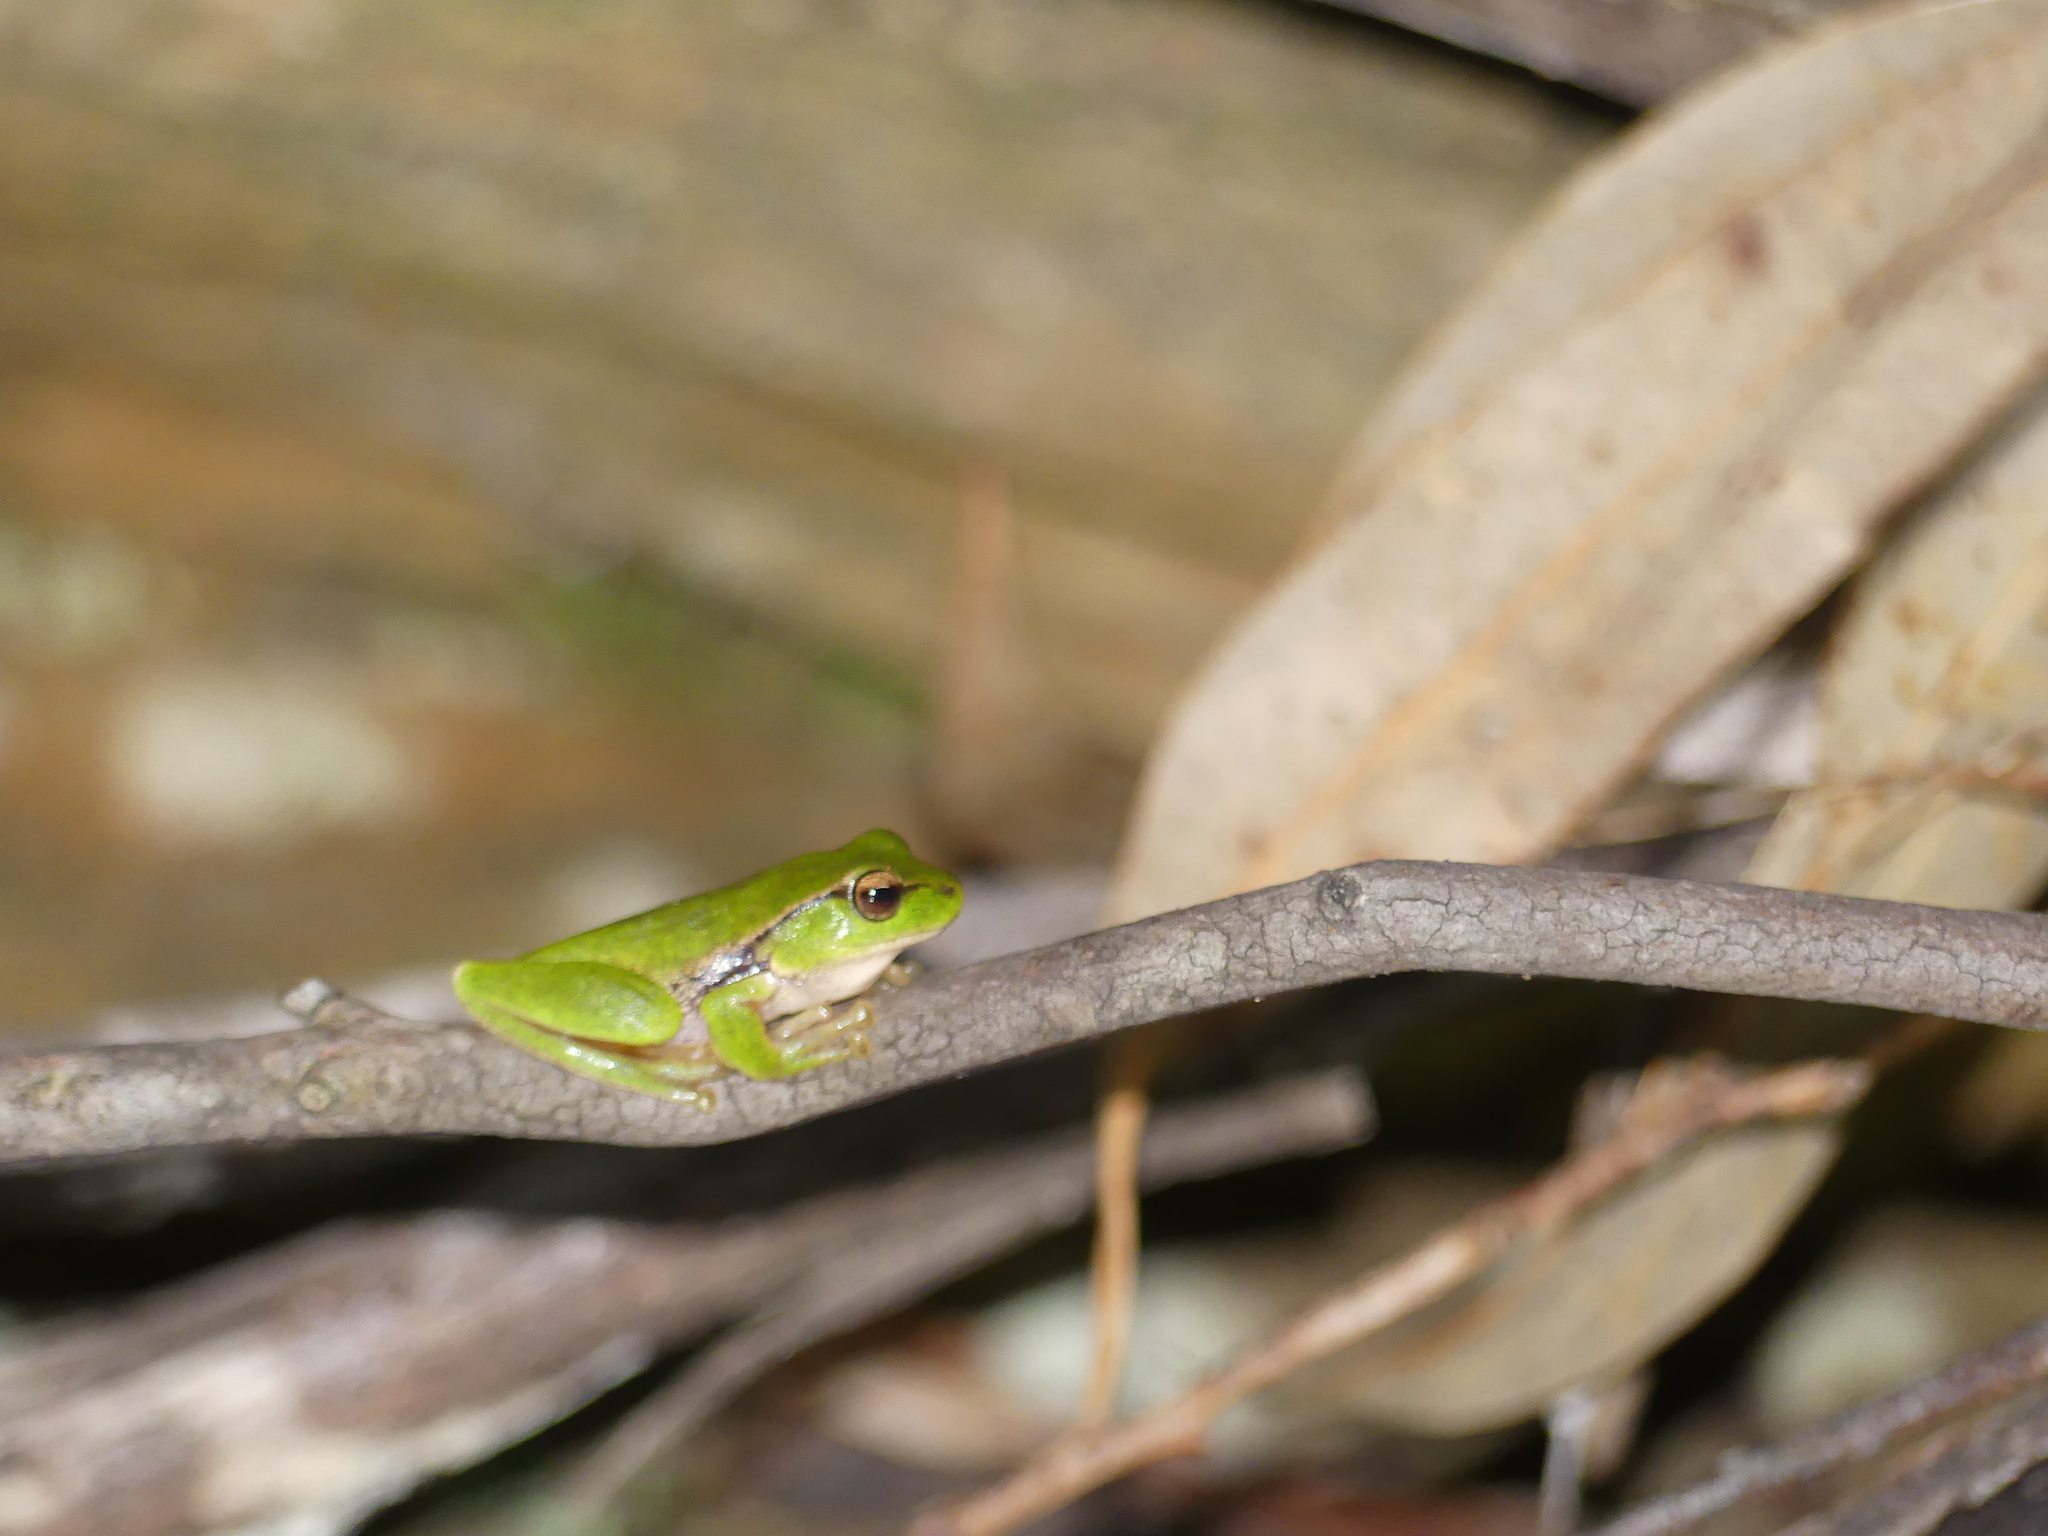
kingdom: Animalia
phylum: Chordata
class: Amphibia
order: Anura
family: Pelodryadidae
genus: Ranoidea
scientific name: Ranoidea phyllochroa
